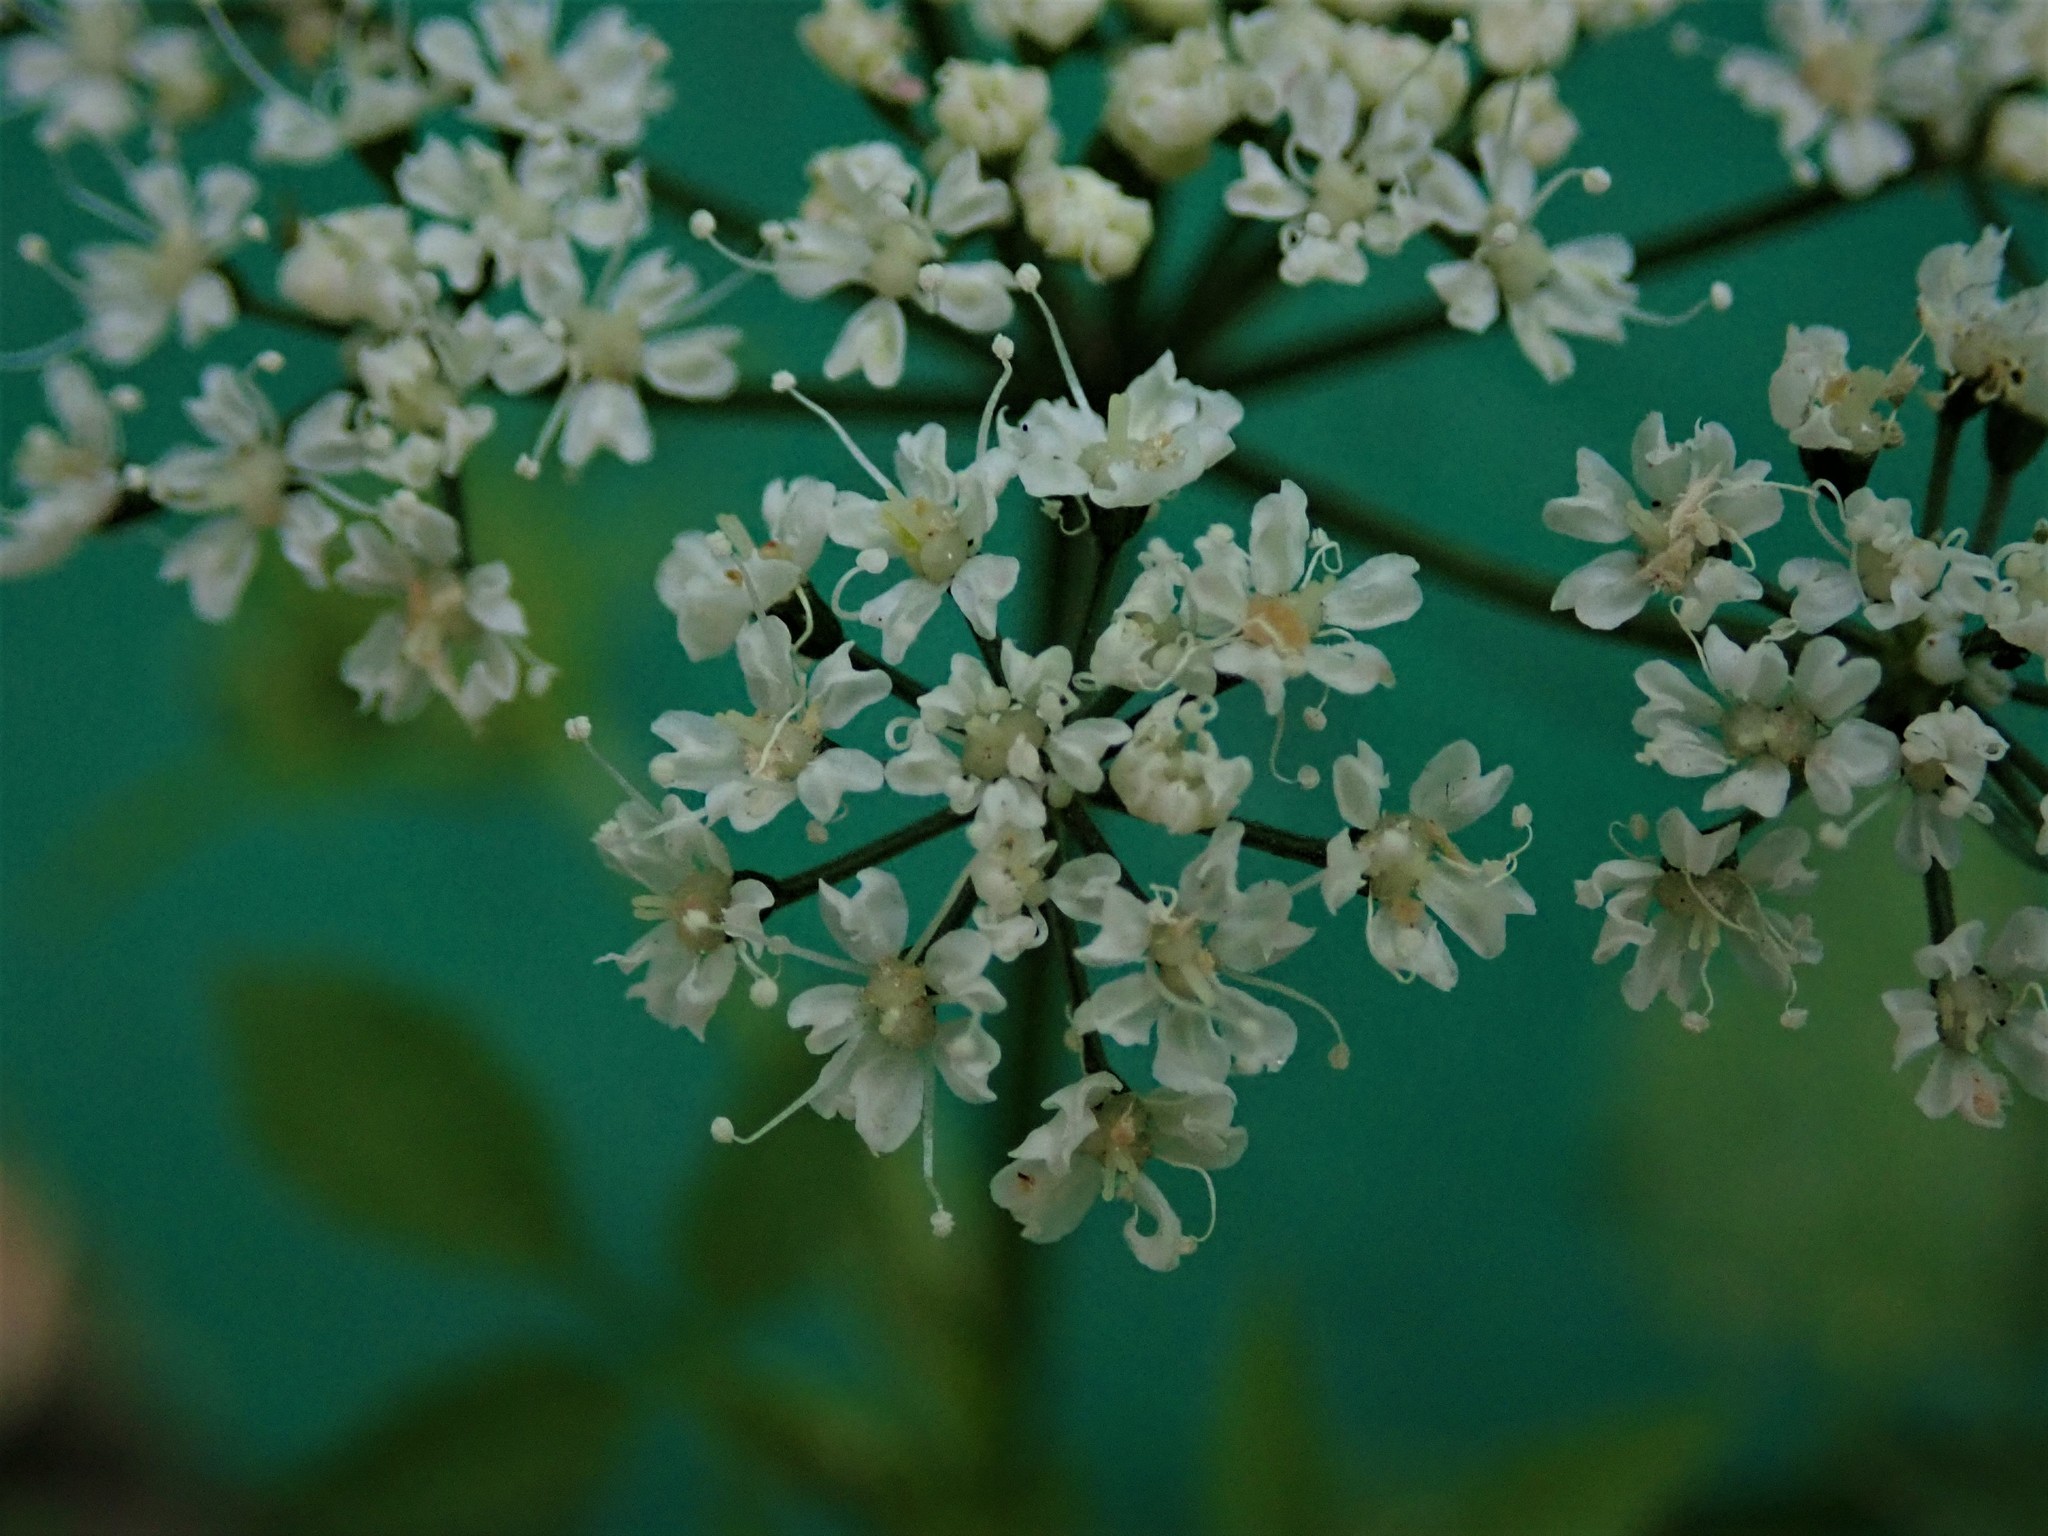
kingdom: Plantae
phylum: Tracheophyta
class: Magnoliopsida
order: Apiales
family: Apiaceae
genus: Aegopodium
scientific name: Aegopodium podagraria
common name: Ground-elder
